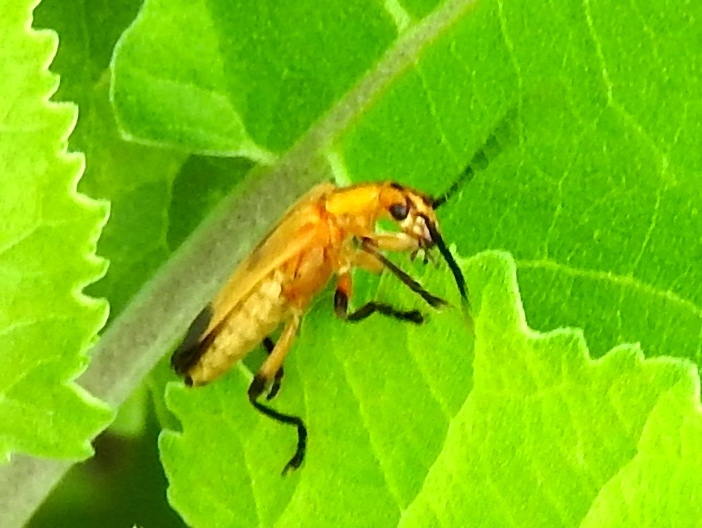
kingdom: Animalia
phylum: Arthropoda
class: Insecta
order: Coleoptera
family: Cantharidae
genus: Daiphron
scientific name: Daiphron proteum
